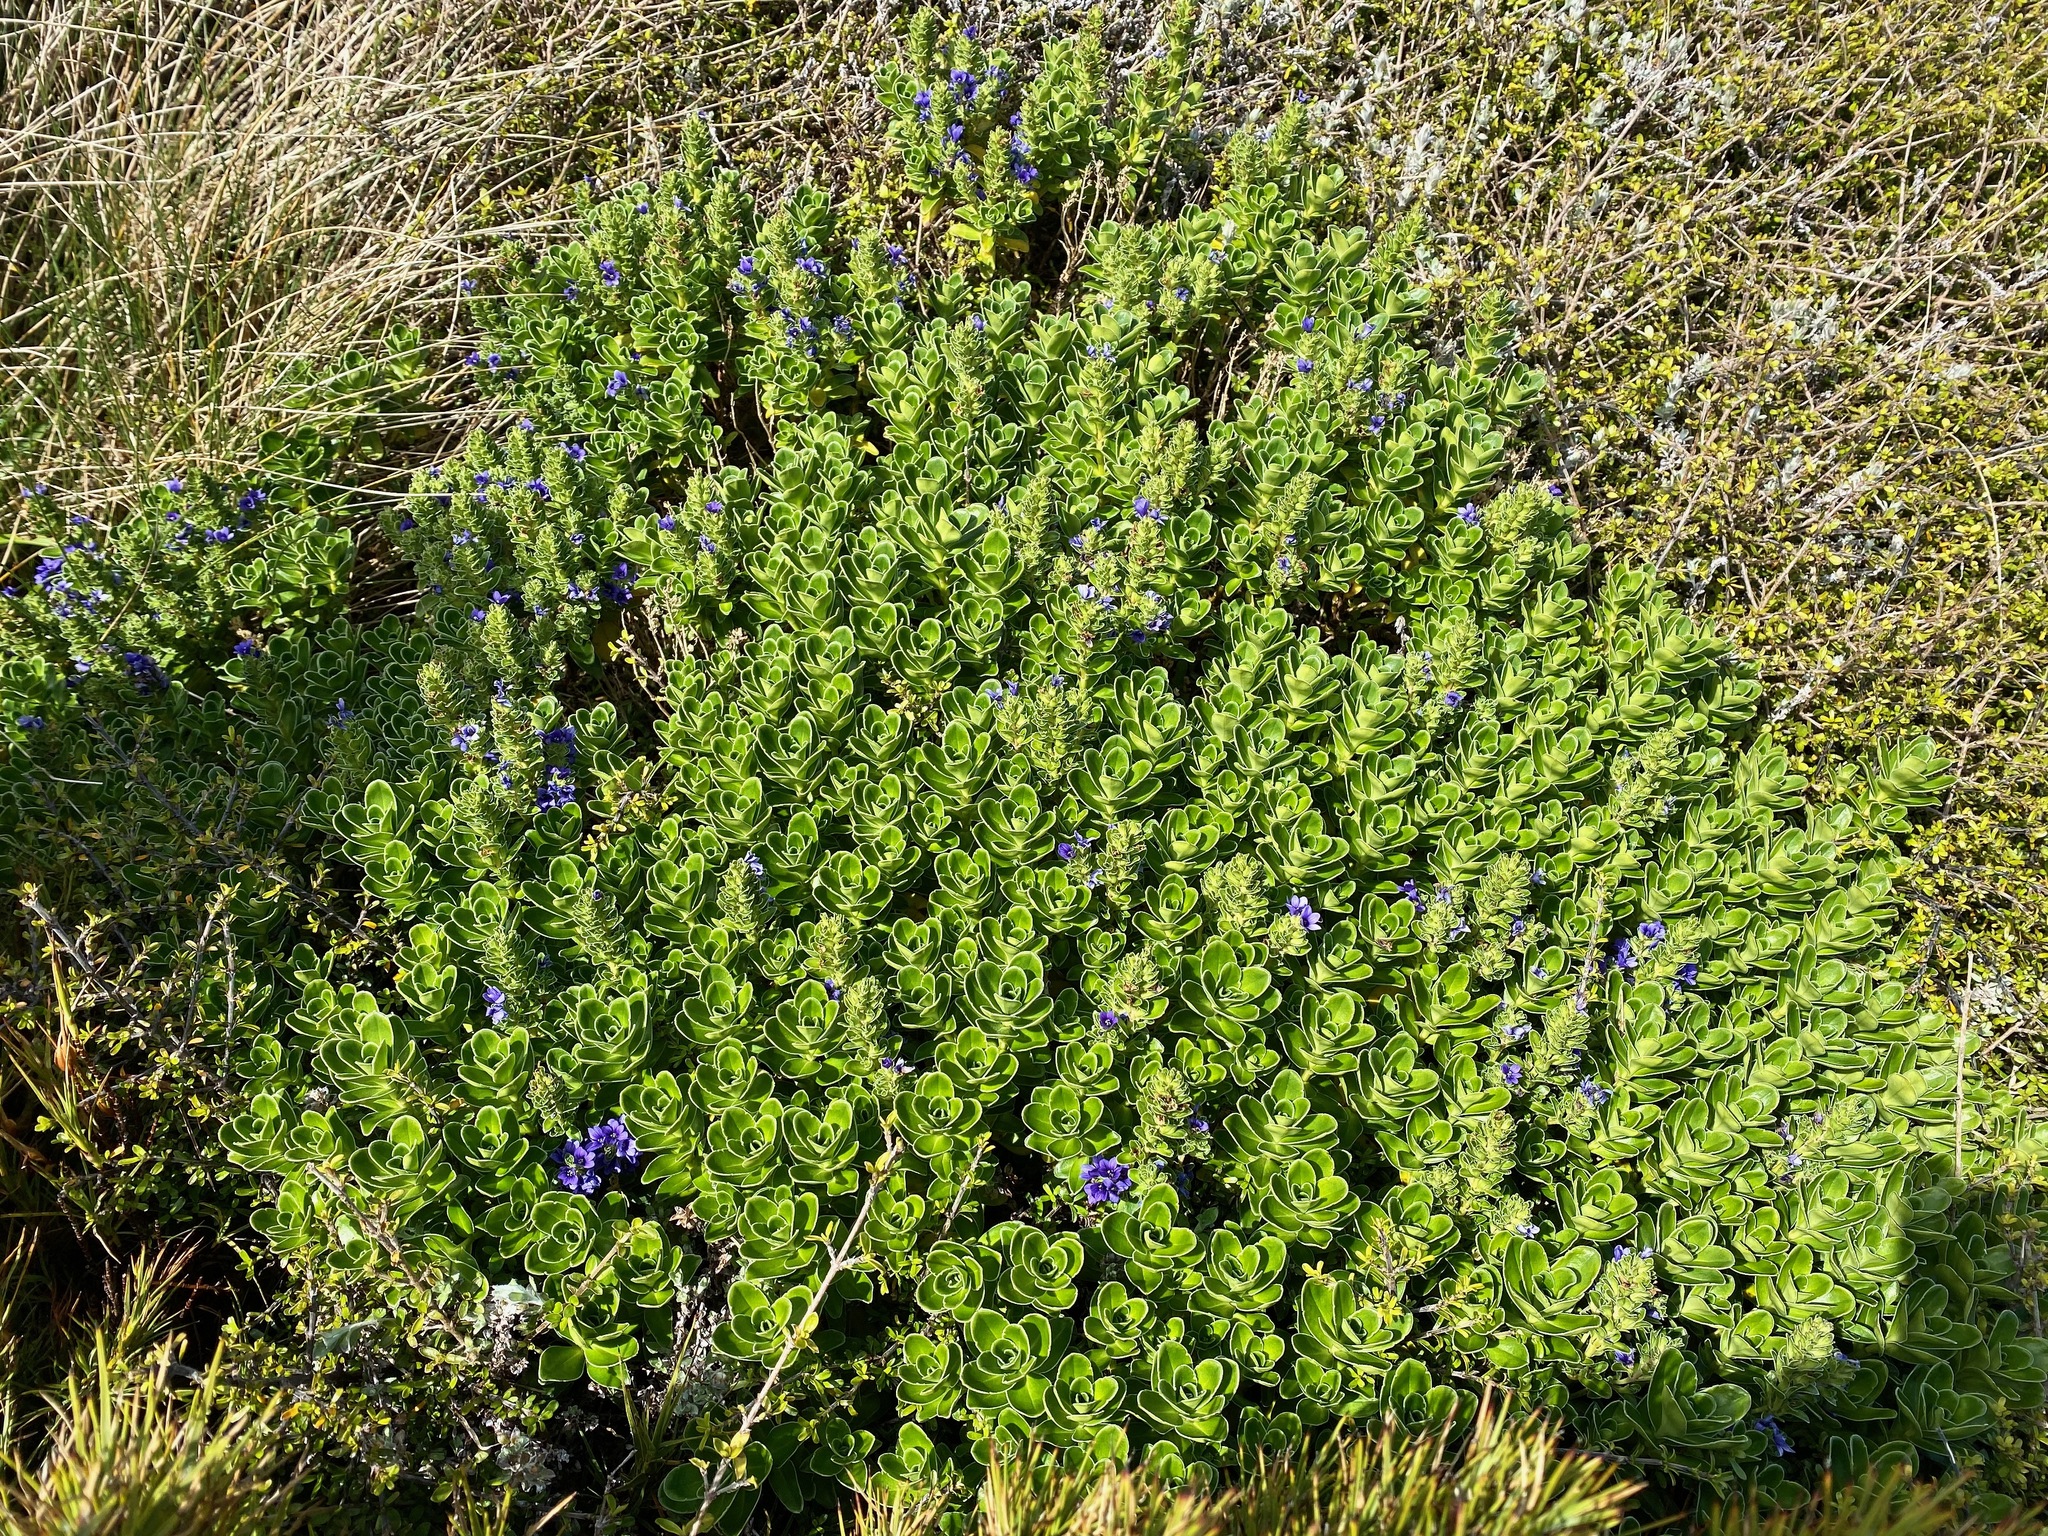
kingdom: Plantae
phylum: Tracheophyta
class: Magnoliopsida
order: Lamiales
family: Plantaginaceae
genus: Veronica
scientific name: Veronica benthamii
